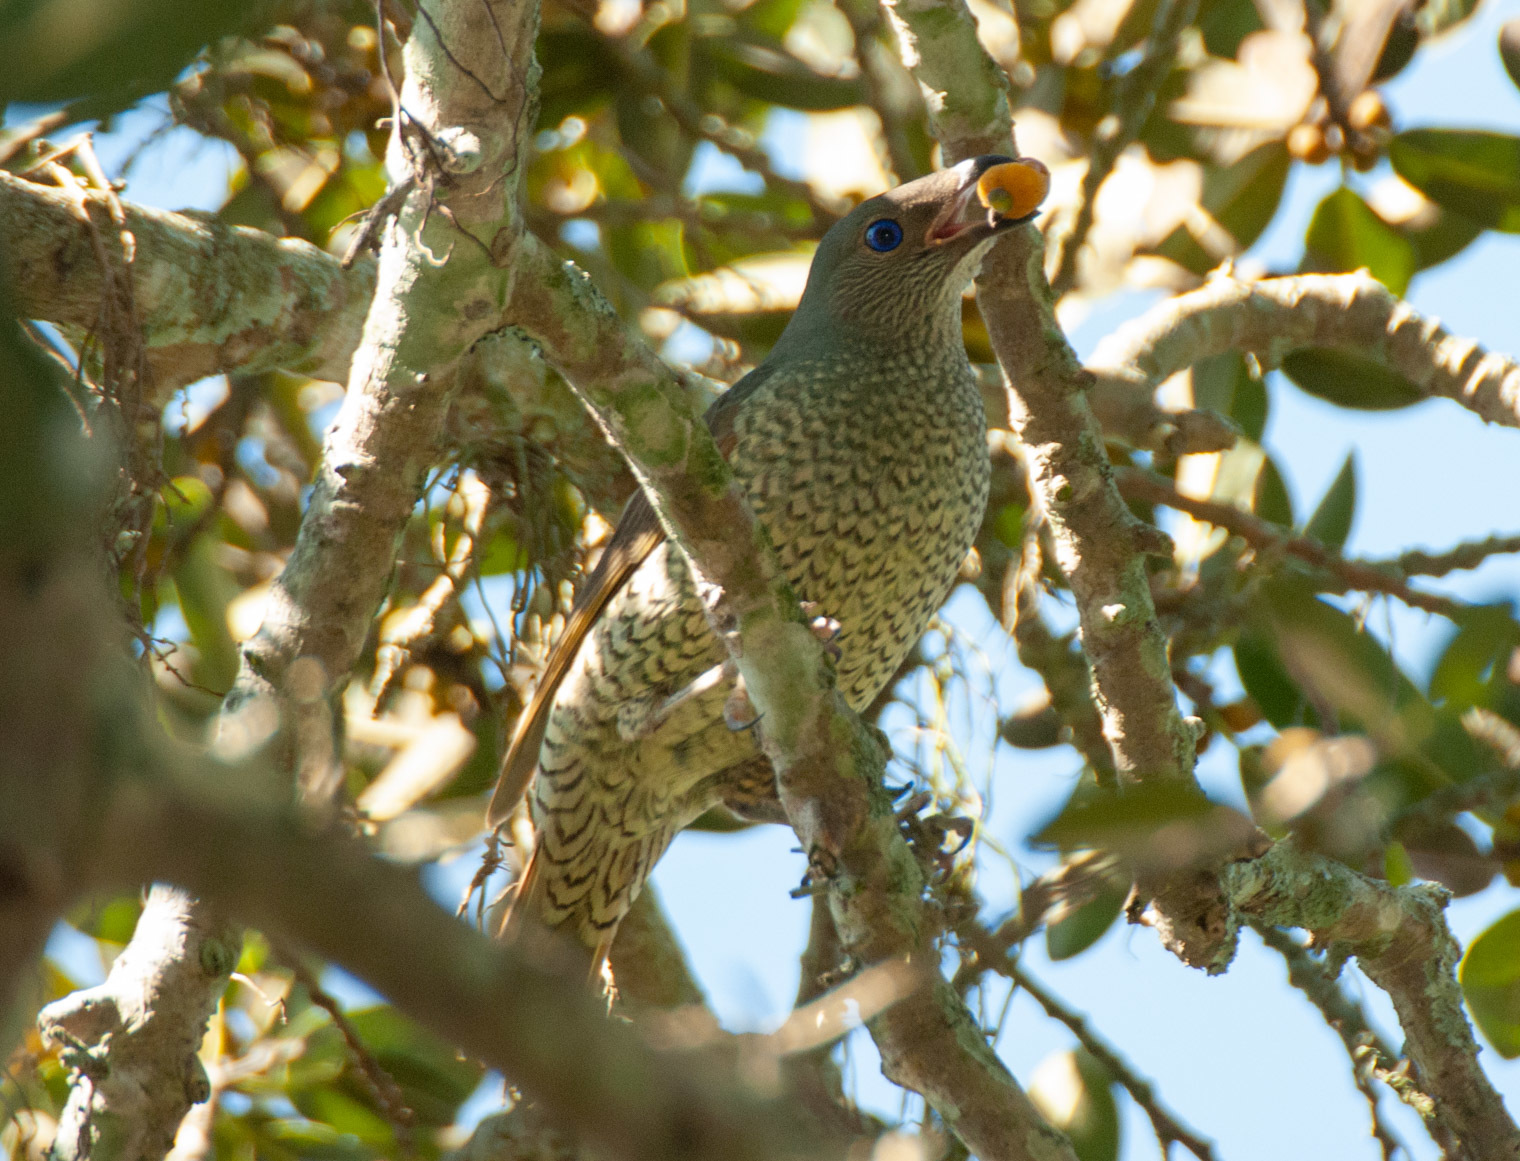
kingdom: Animalia
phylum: Chordata
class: Aves
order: Passeriformes
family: Ptilonorhynchidae
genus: Ptilonorhynchus
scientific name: Ptilonorhynchus violaceus
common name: Satin bowerbird
